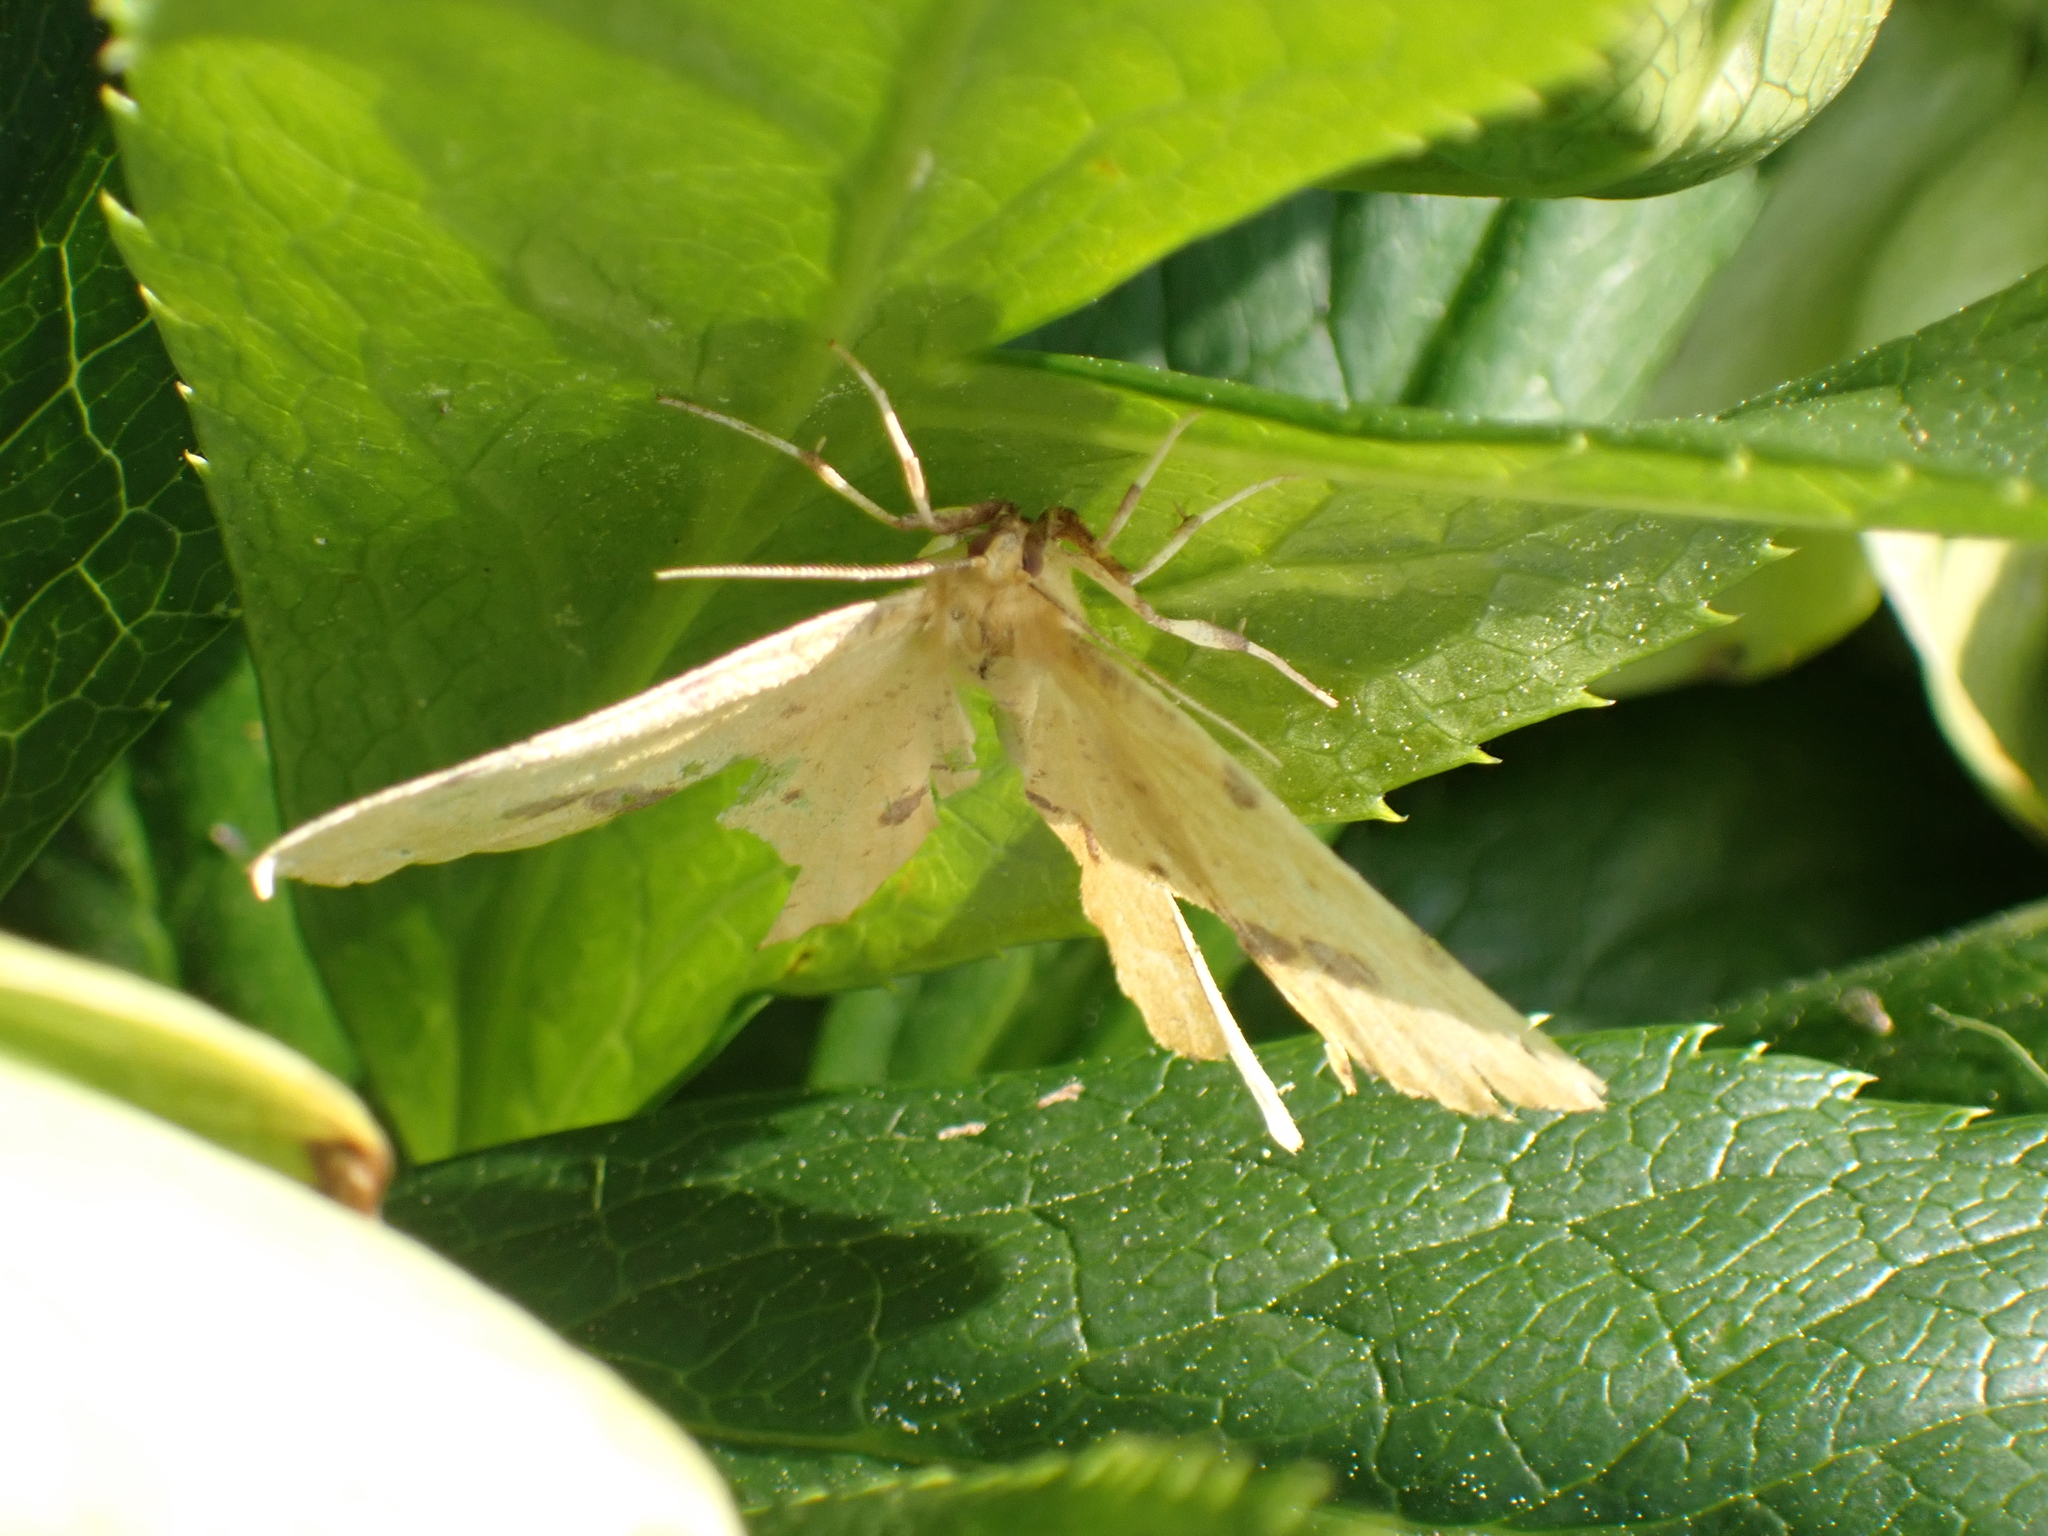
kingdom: Animalia
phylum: Arthropoda
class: Insecta
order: Lepidoptera
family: Geometridae
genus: Xanthotype
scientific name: Xanthotype
